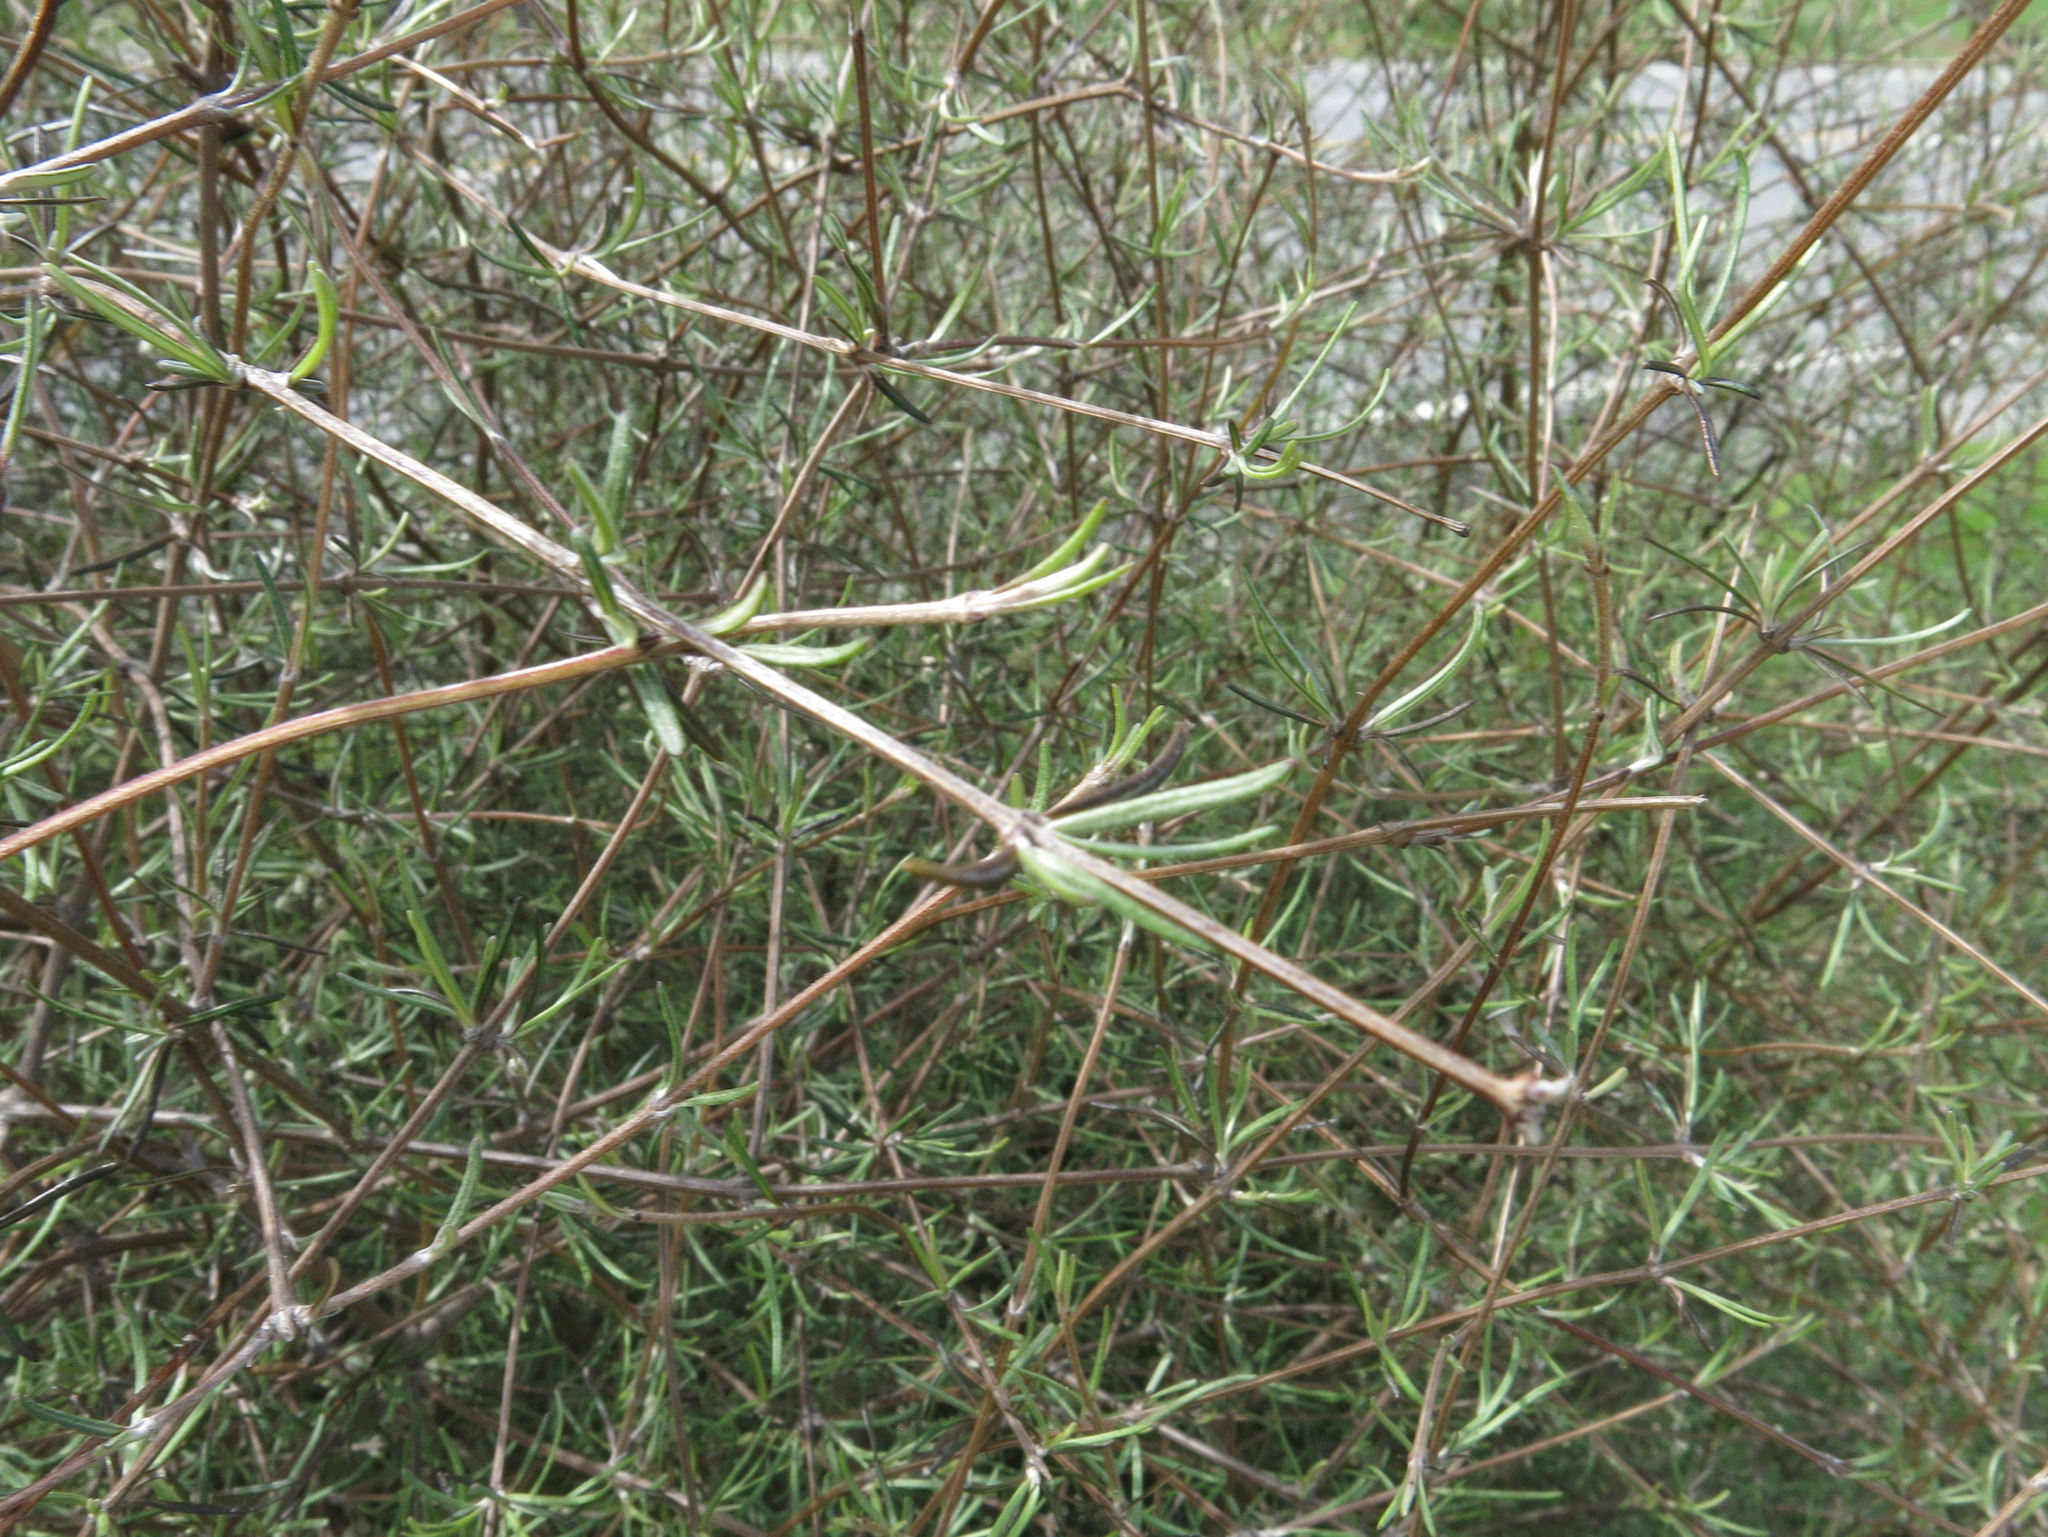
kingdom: Plantae
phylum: Tracheophyta
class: Magnoliopsida
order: Asterales
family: Asteraceae
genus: Olearia
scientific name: Olearia lineata
